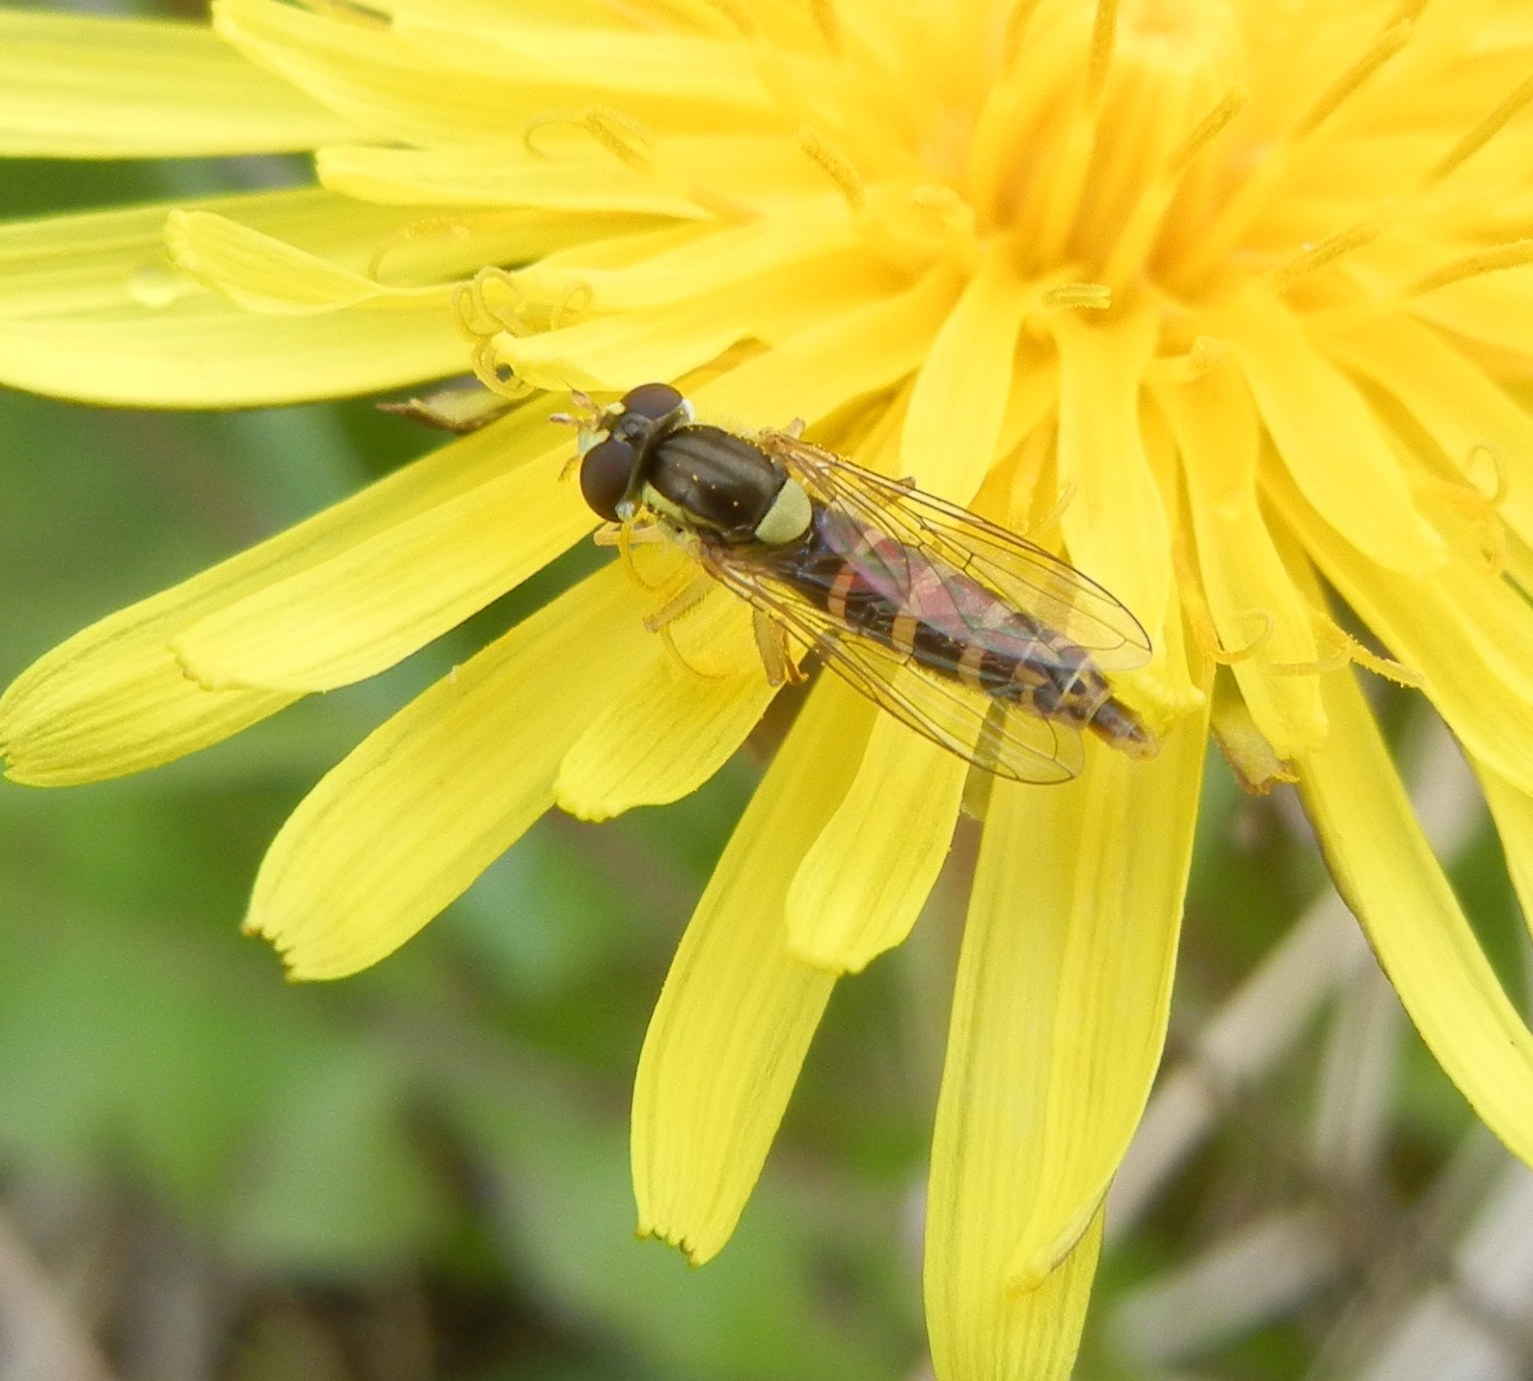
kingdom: Animalia
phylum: Arthropoda
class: Insecta
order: Diptera
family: Syrphidae
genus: Sphaerophoria
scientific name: Sphaerophoria
